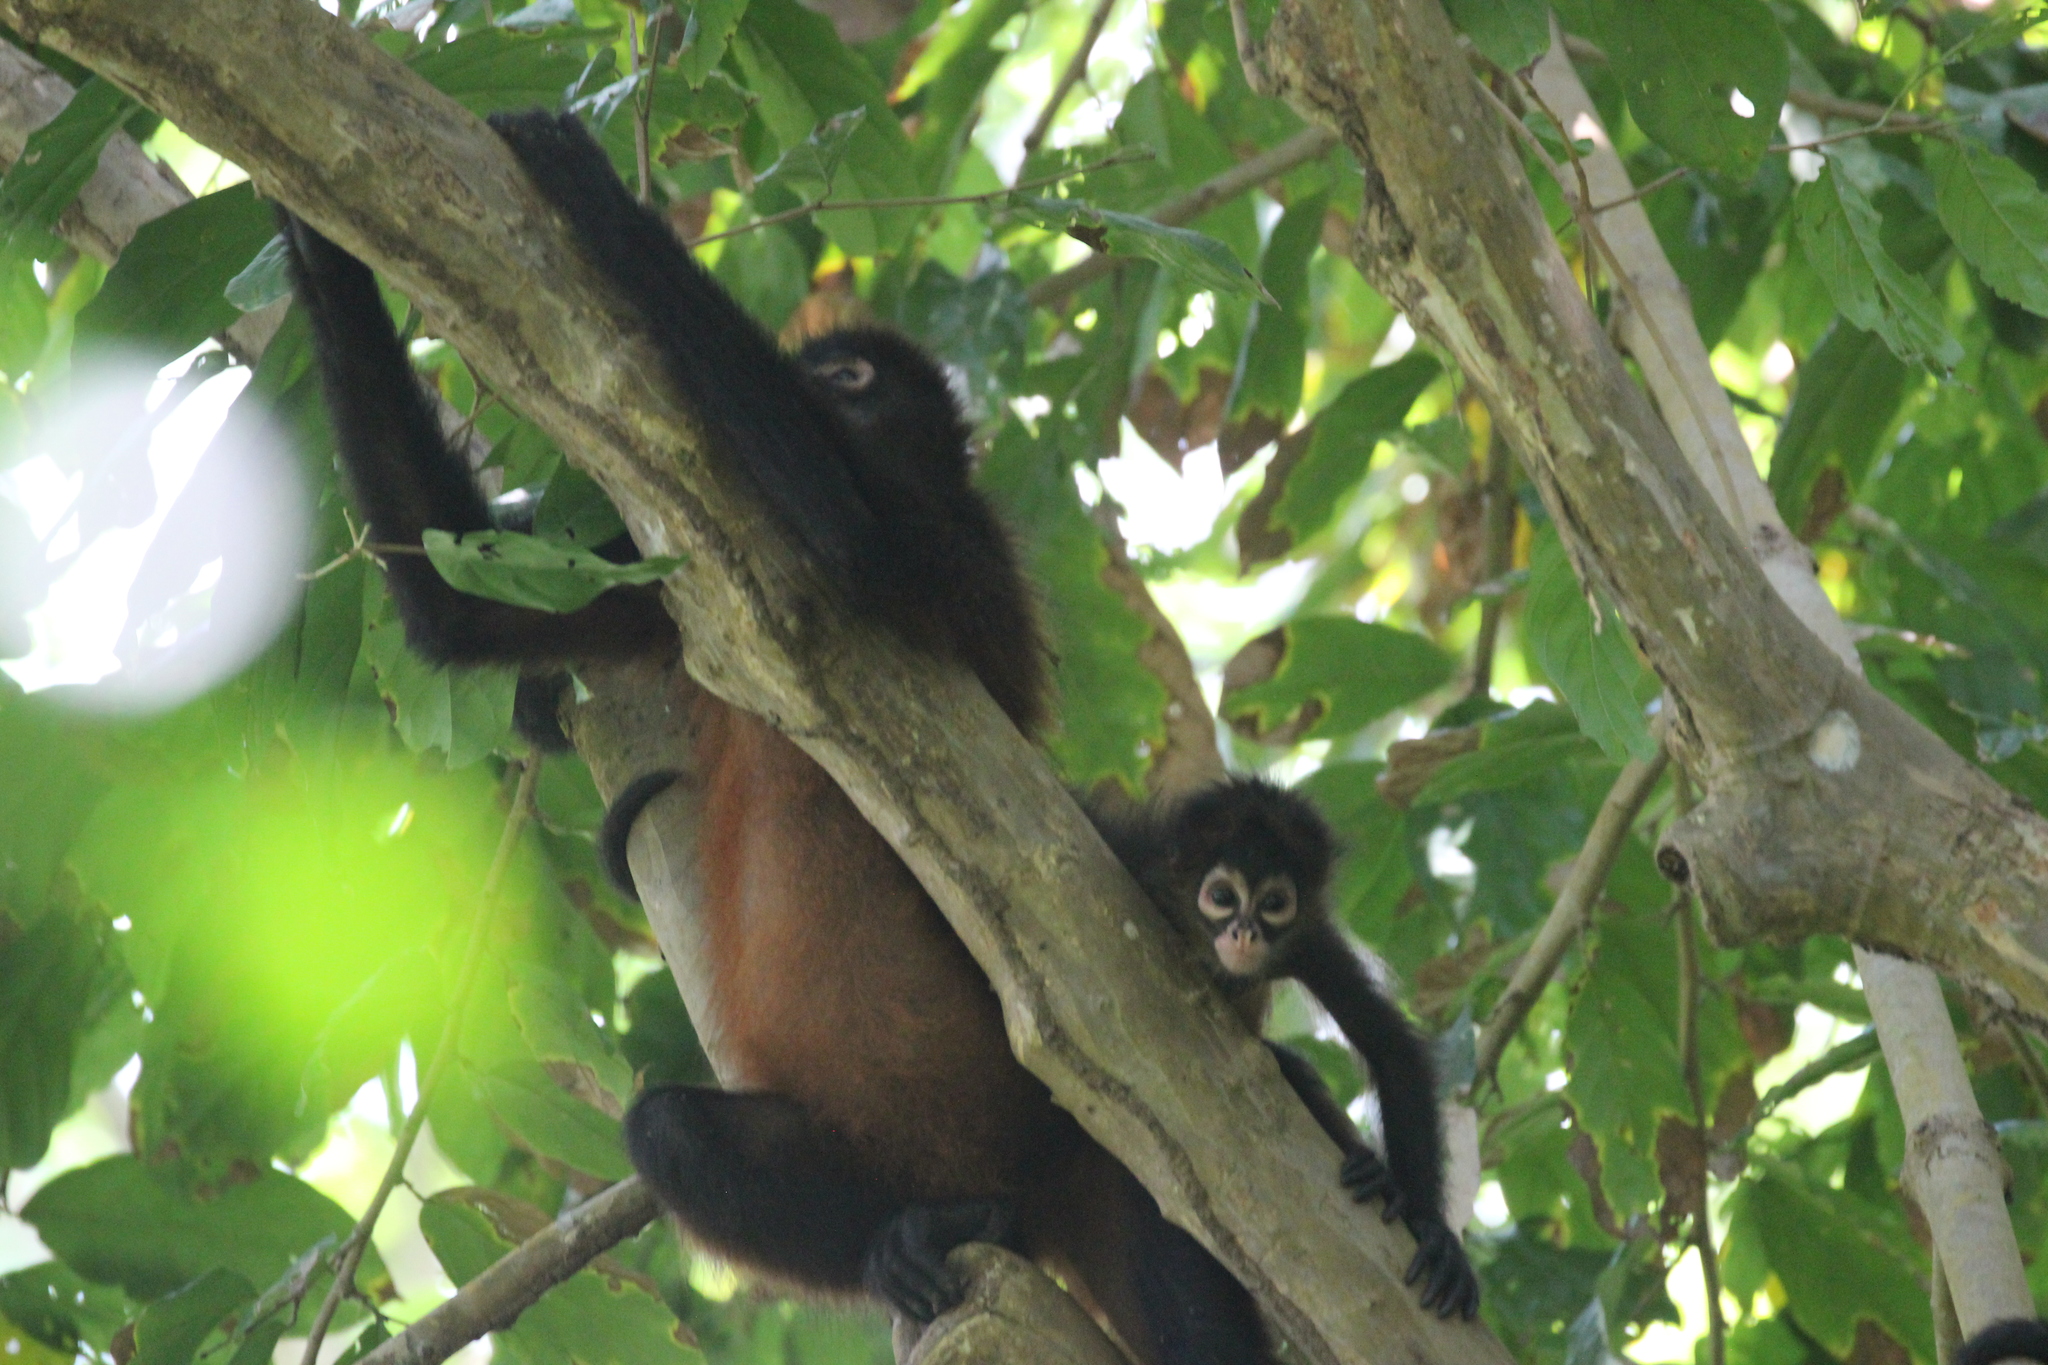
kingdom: Animalia
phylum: Chordata
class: Mammalia
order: Primates
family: Atelidae
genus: Ateles
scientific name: Ateles geoffroyi
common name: Black-handed spider monkey
